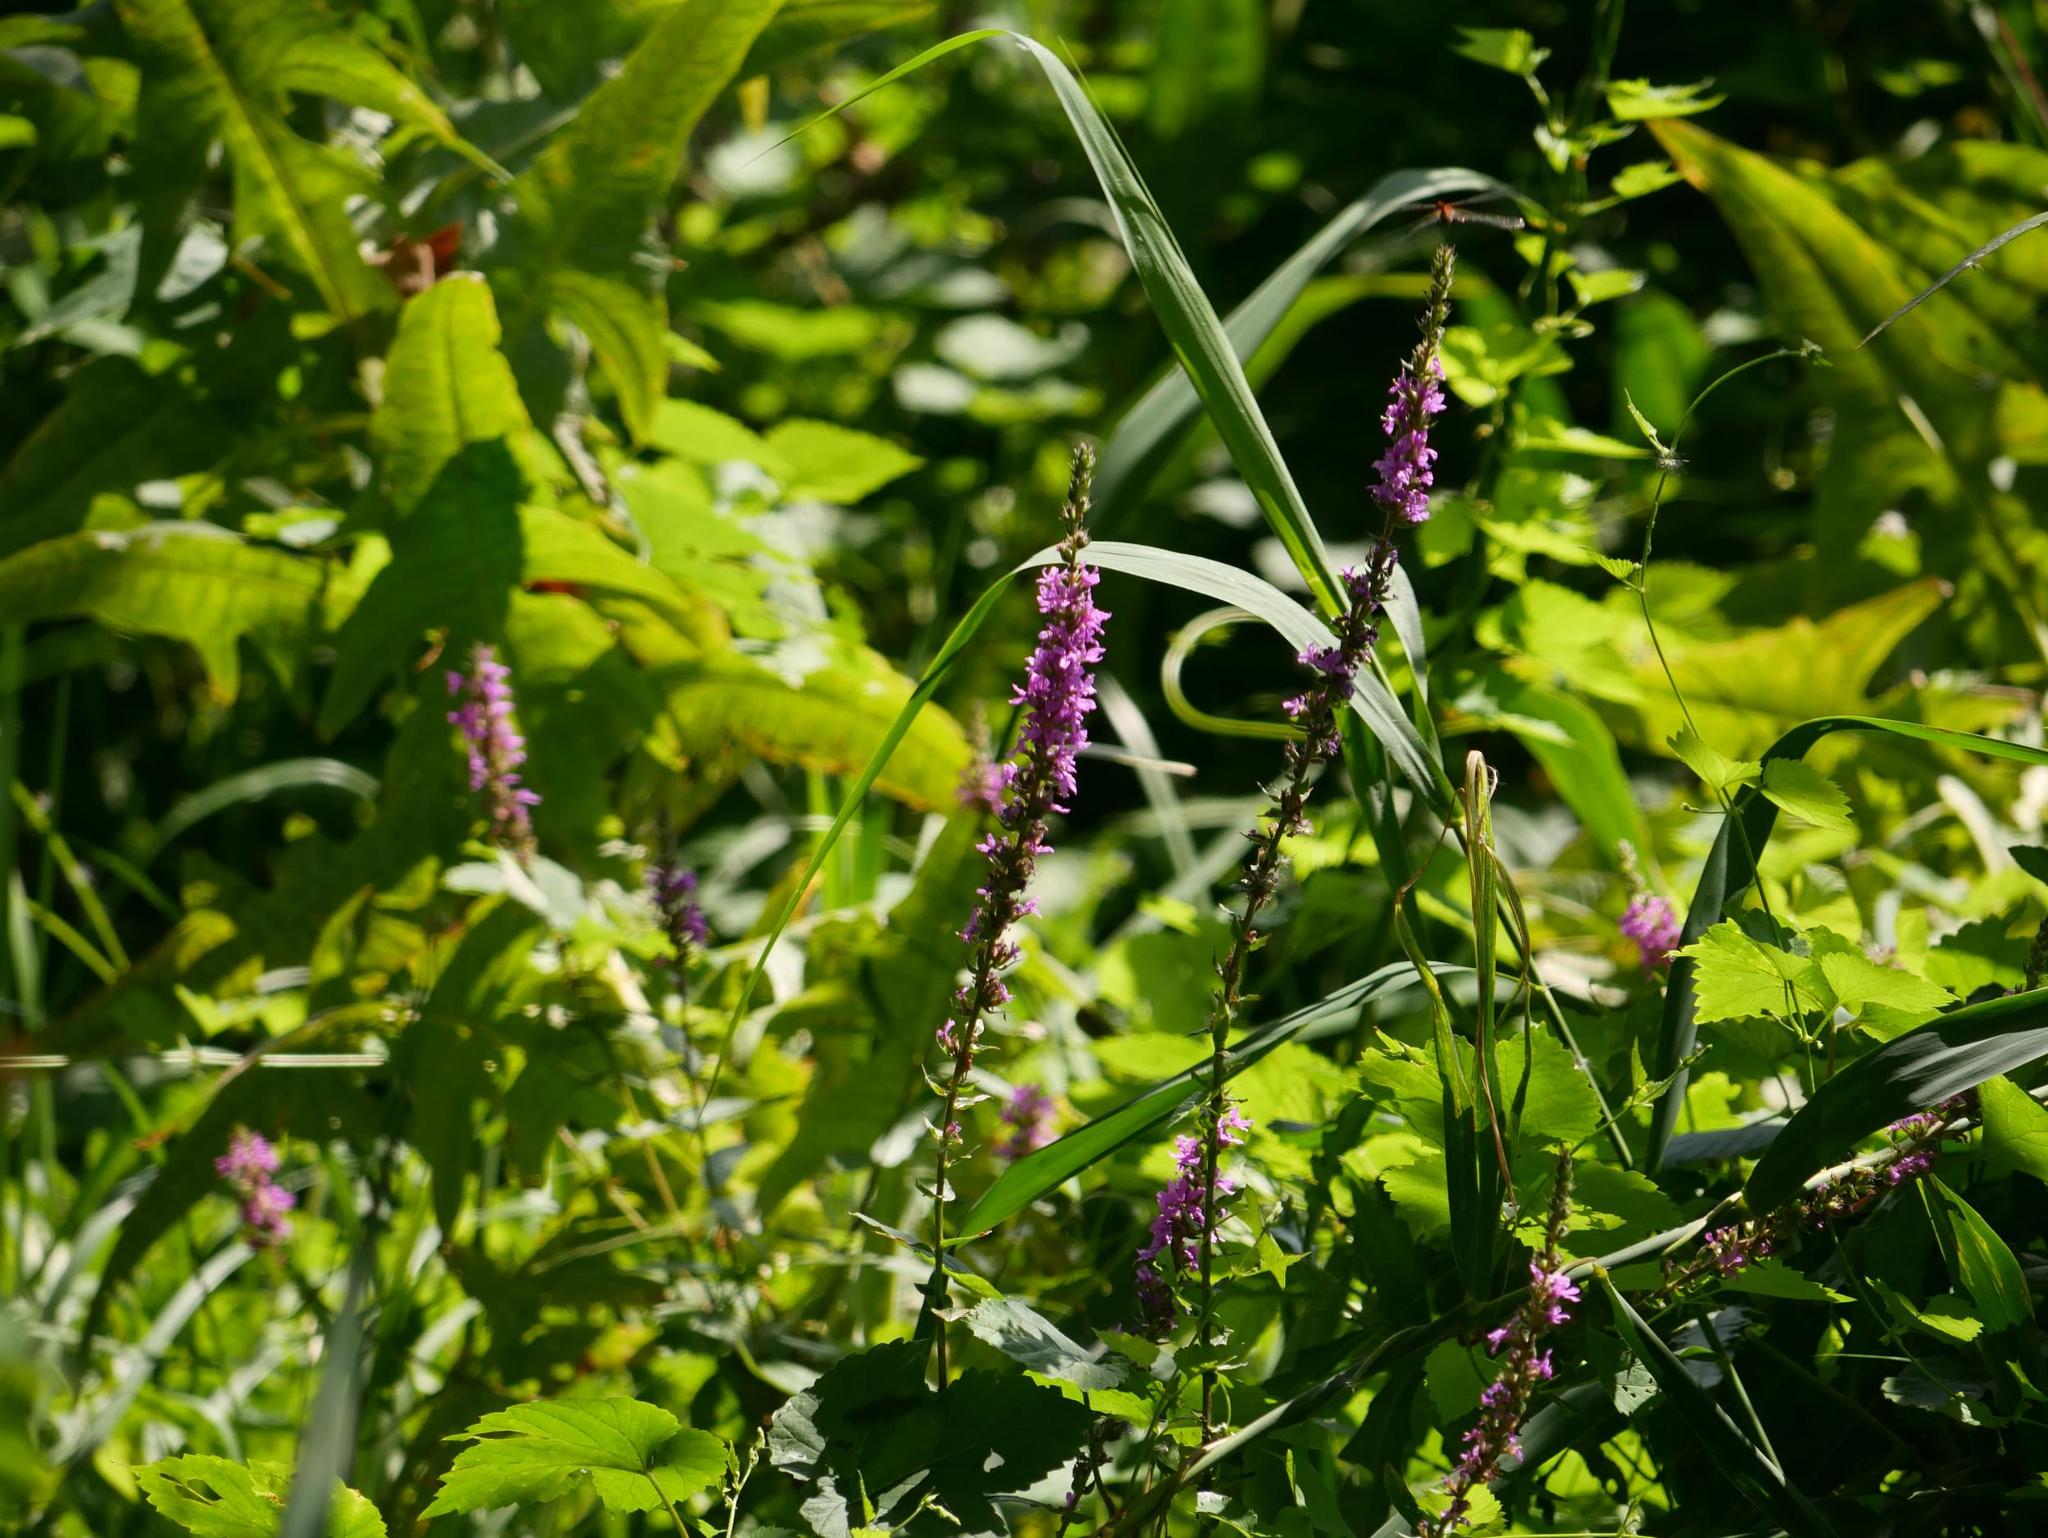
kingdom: Plantae
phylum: Tracheophyta
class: Magnoliopsida
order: Myrtales
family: Lythraceae
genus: Lythrum
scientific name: Lythrum salicaria
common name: Purple loosestrife
